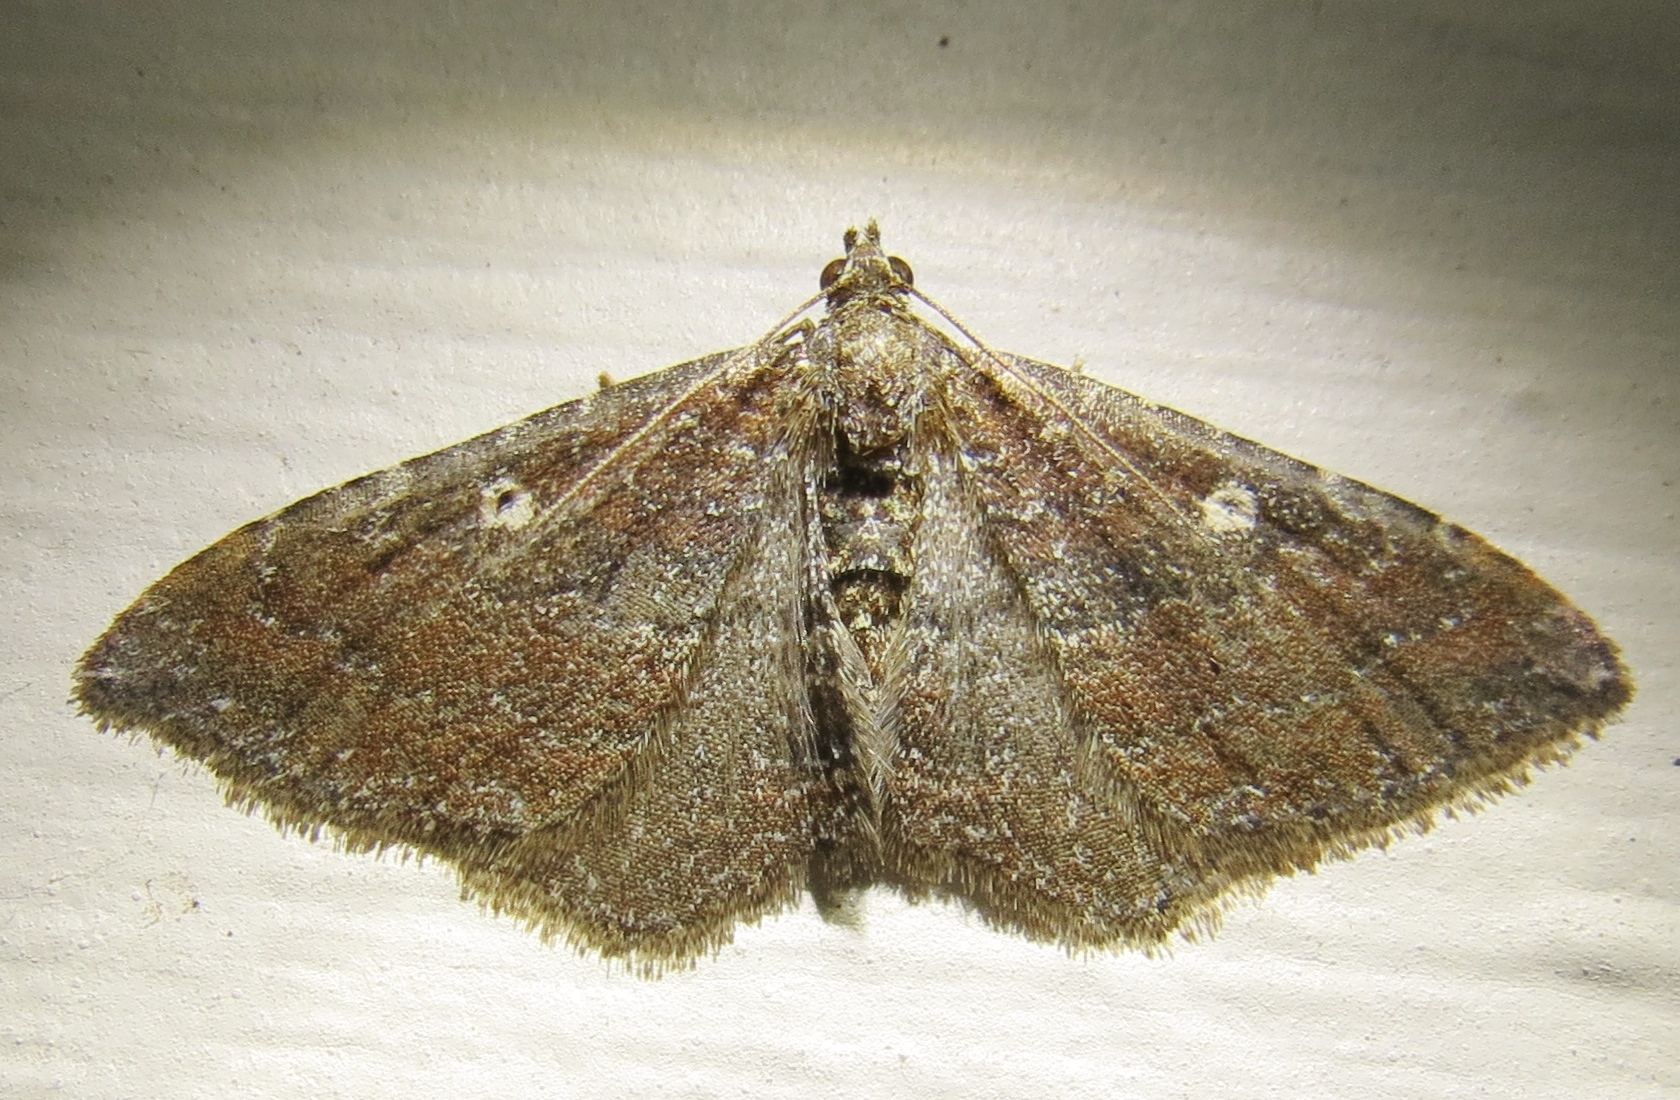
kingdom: Animalia
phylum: Arthropoda
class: Insecta
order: Lepidoptera
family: Geometridae
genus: Orthonama
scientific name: Orthonama obstipata
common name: The gem
